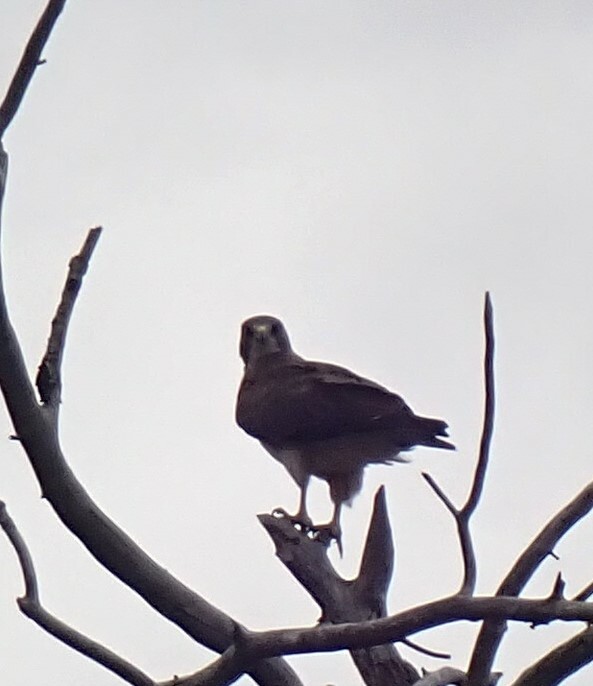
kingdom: Animalia
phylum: Chordata
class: Aves
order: Accipitriformes
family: Accipitridae
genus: Buteo
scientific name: Buteo swainsoni
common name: Swainson's hawk
